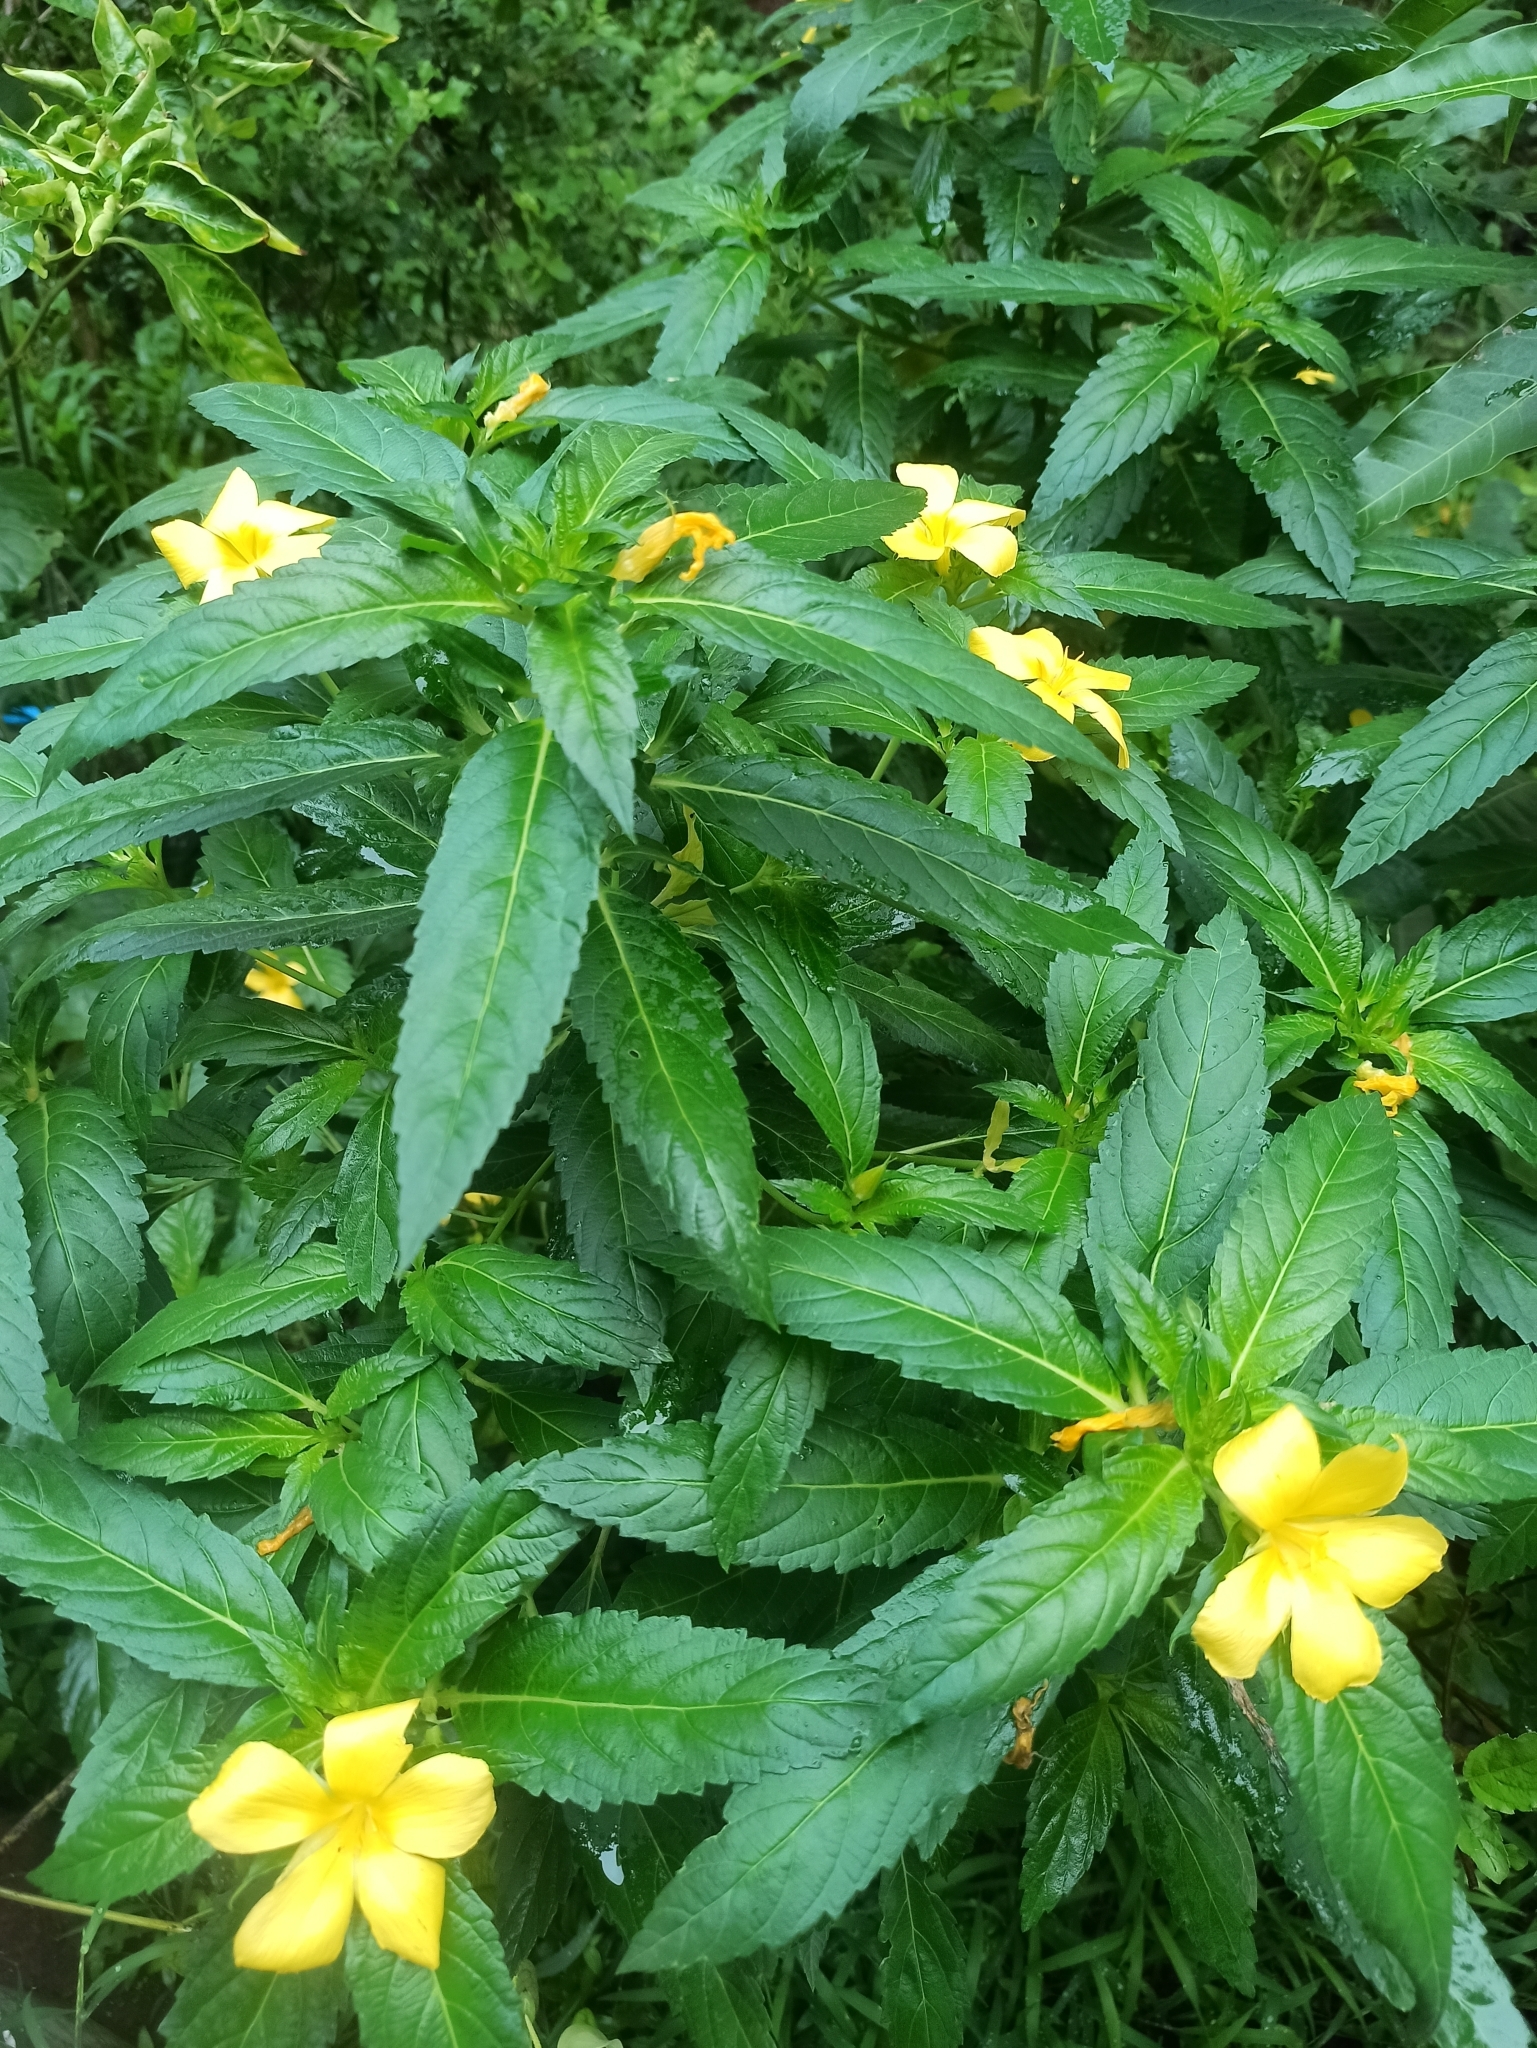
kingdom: Plantae
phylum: Tracheophyta
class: Magnoliopsida
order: Malpighiales
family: Turneraceae
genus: Turnera
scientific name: Turnera ulmifolia
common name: Ramgoat dashalong
